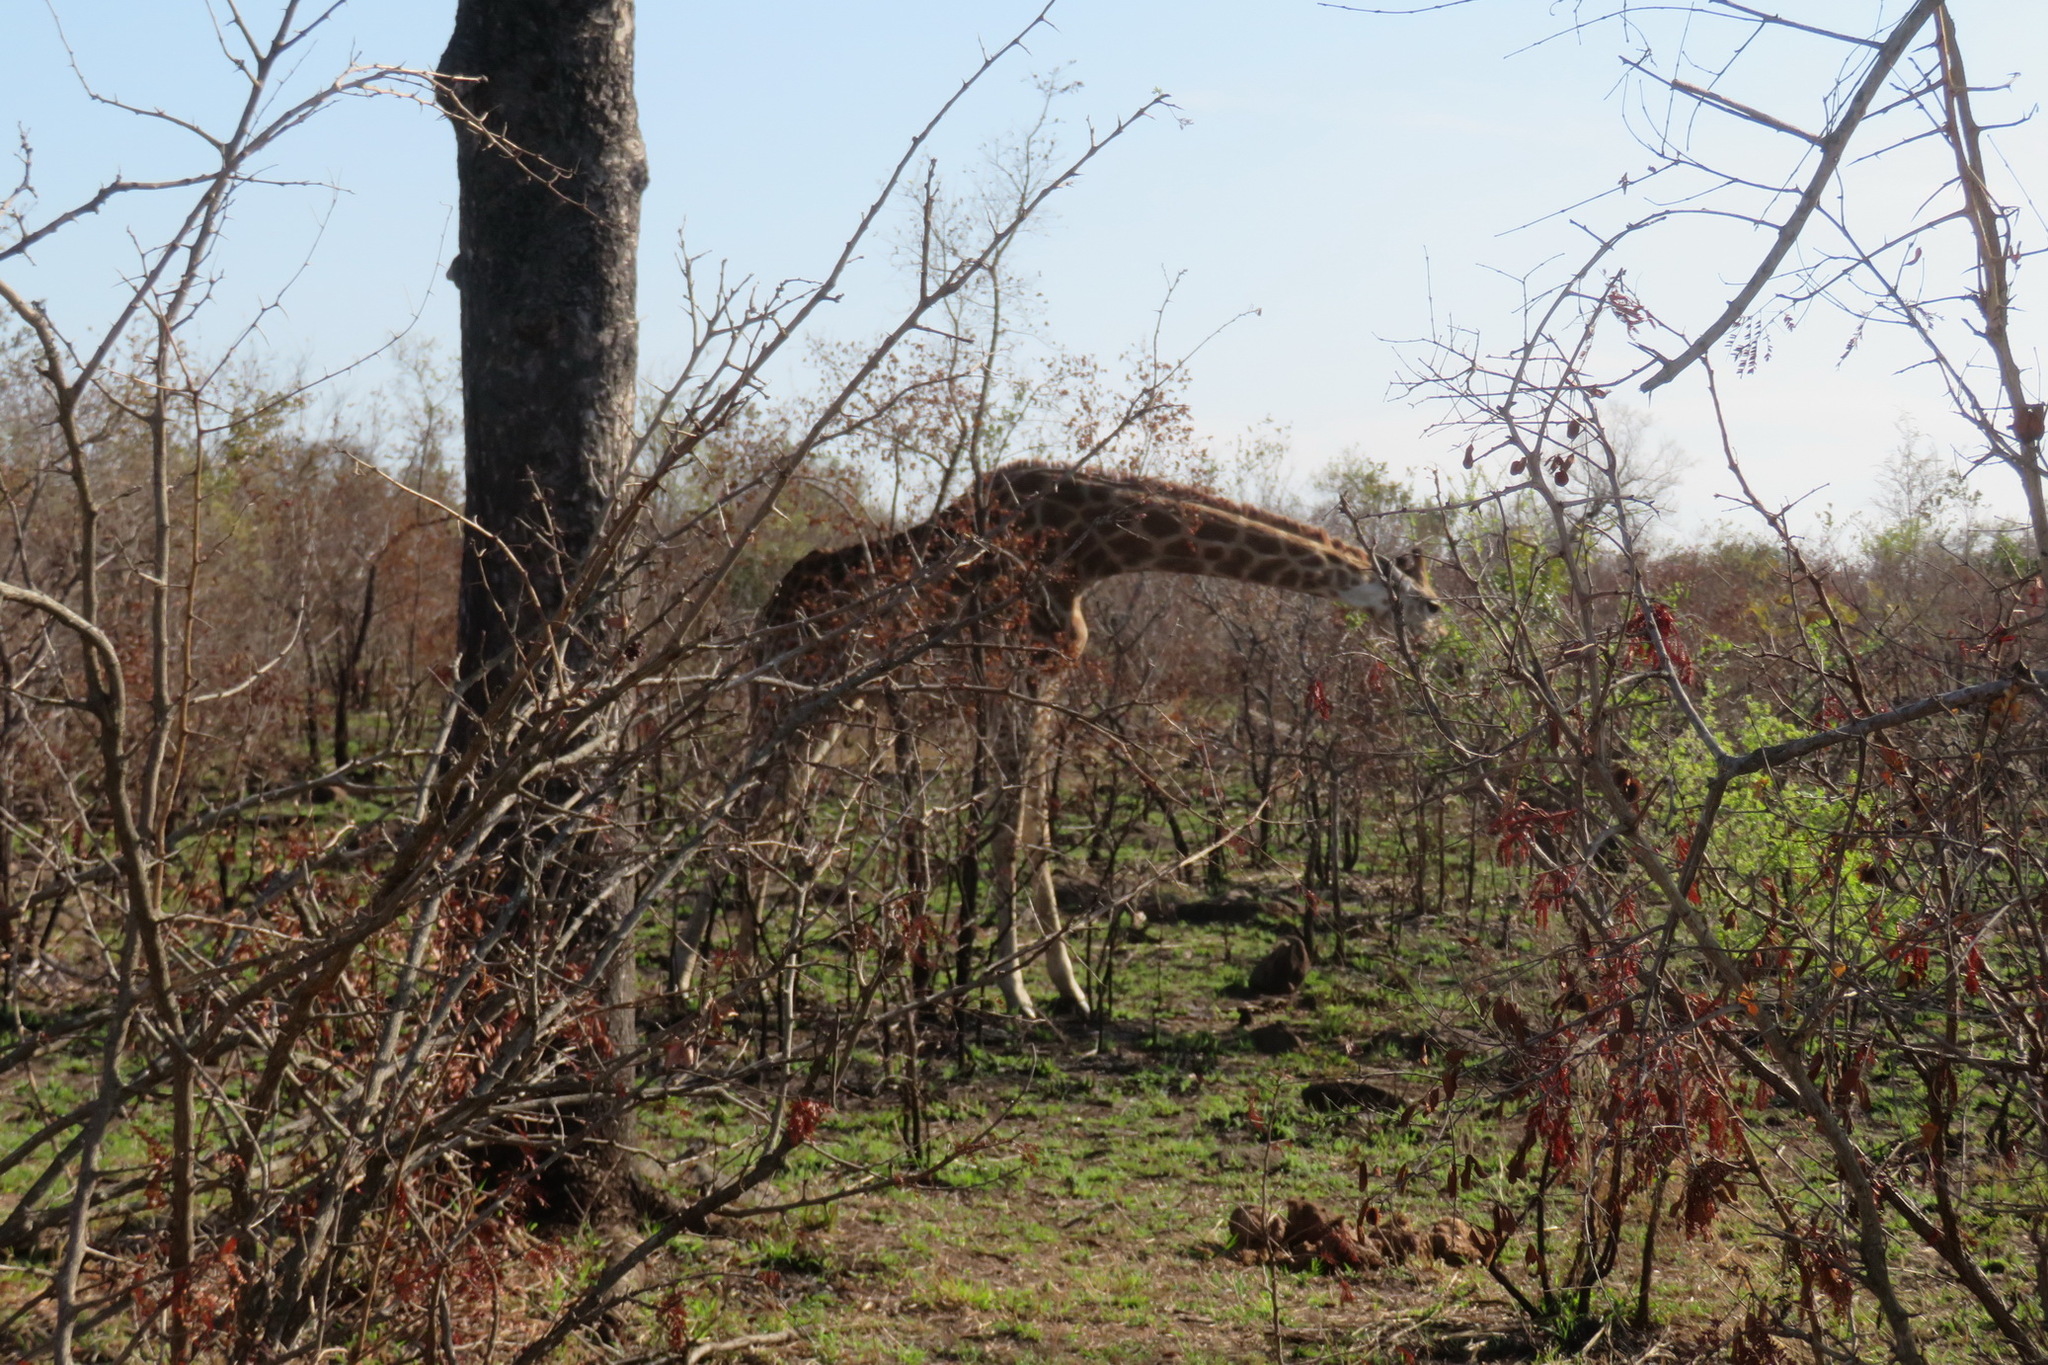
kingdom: Animalia
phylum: Chordata
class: Mammalia
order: Artiodactyla
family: Giraffidae
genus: Giraffa
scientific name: Giraffa giraffa
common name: Southern giraffe
